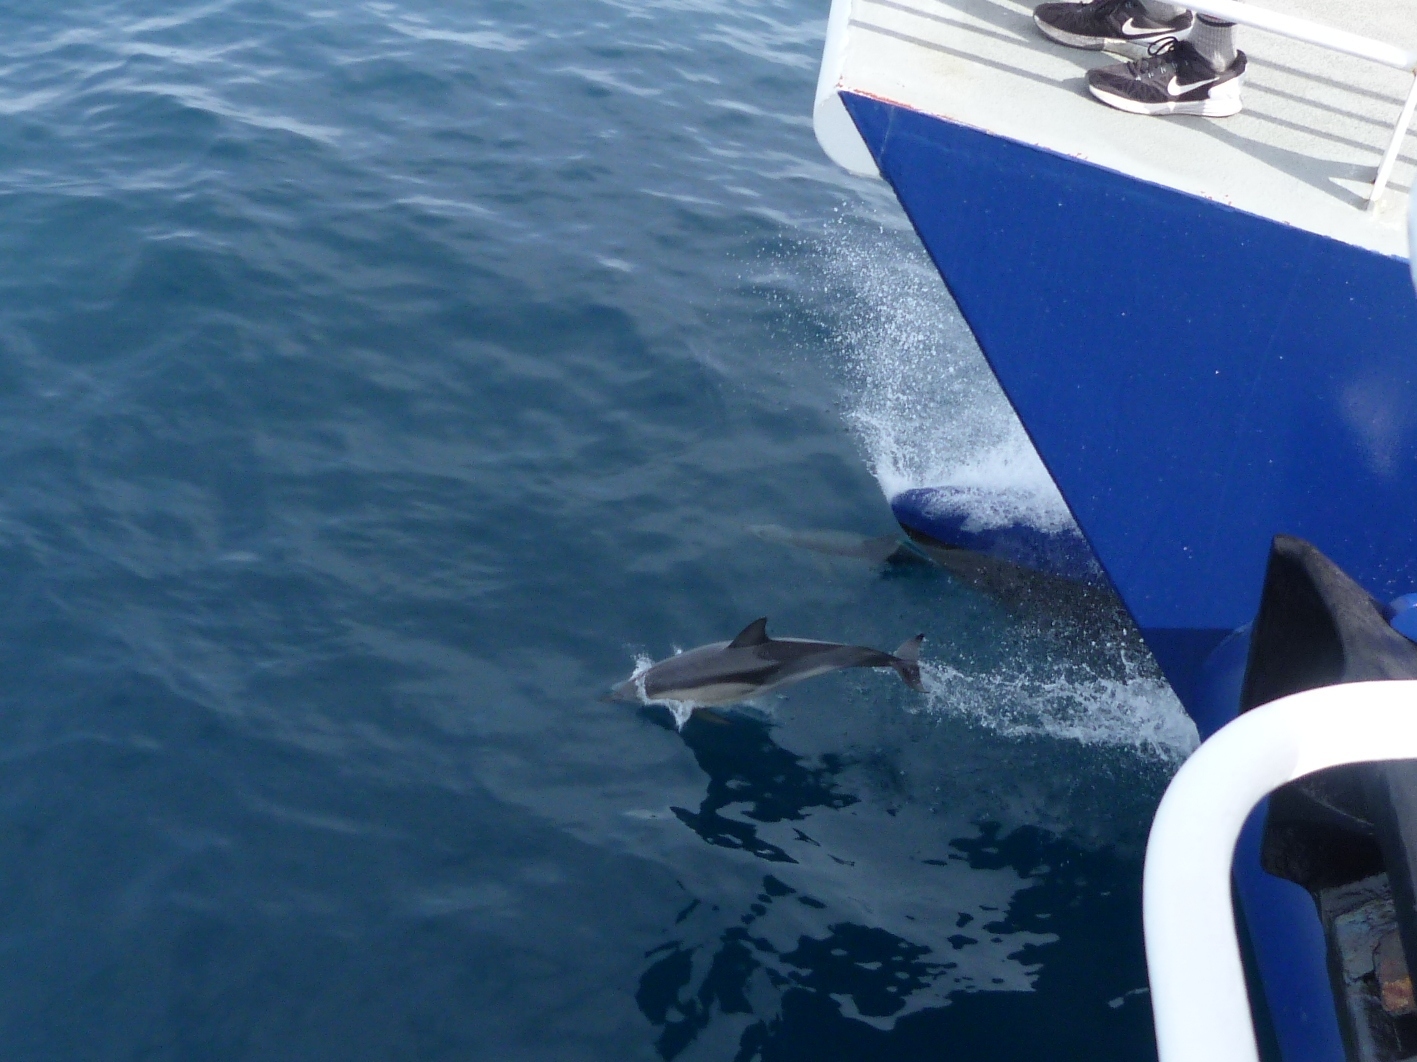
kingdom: Animalia
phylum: Chordata
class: Mammalia
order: Cetacea
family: Delphinidae
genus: Delphinus
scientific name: Delphinus delphis
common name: Common dolphin
